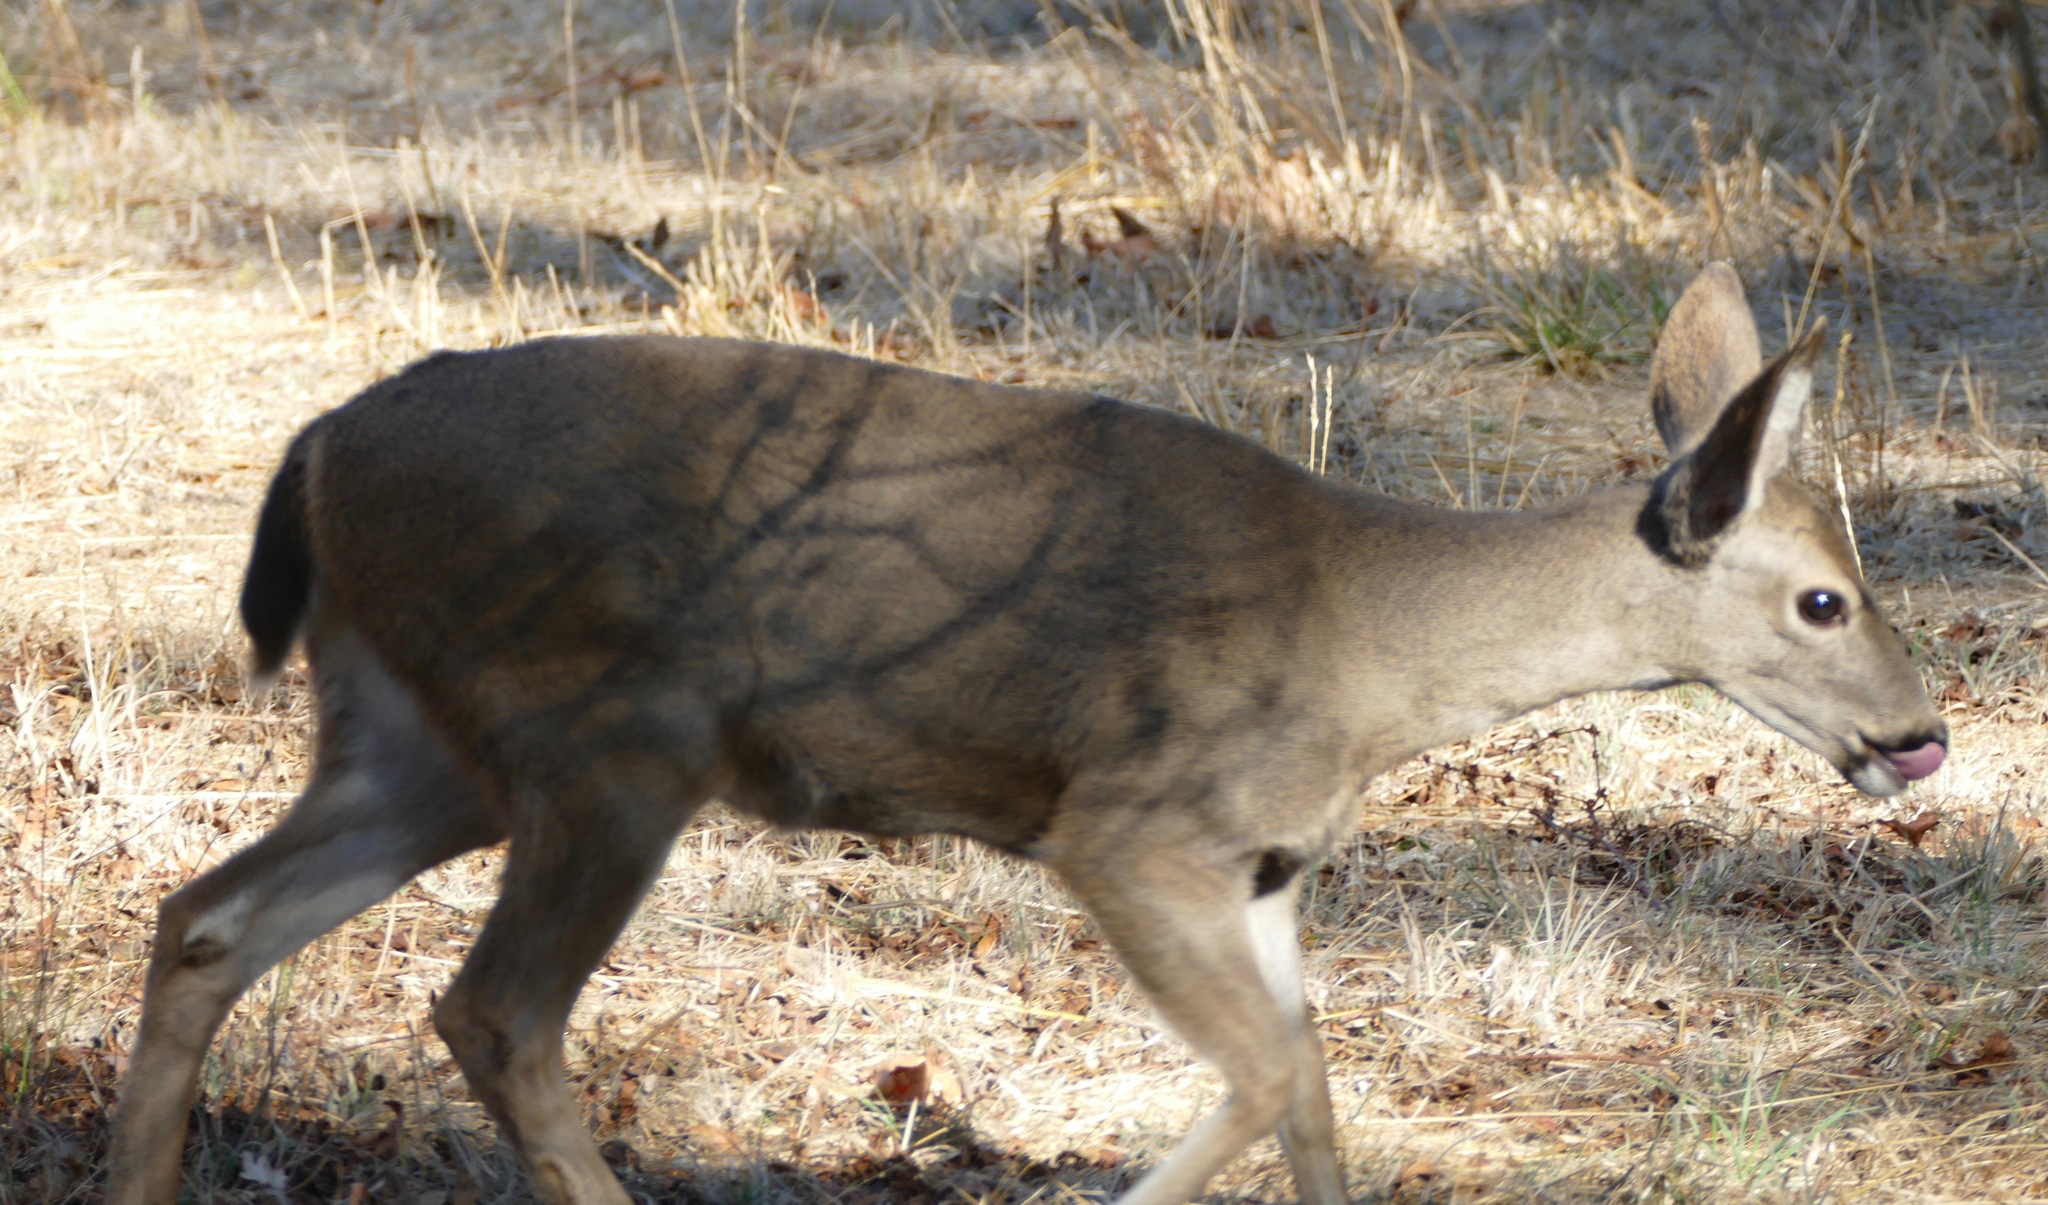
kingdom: Animalia
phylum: Chordata
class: Mammalia
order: Artiodactyla
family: Cervidae
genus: Odocoileus
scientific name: Odocoileus hemionus
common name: Mule deer
